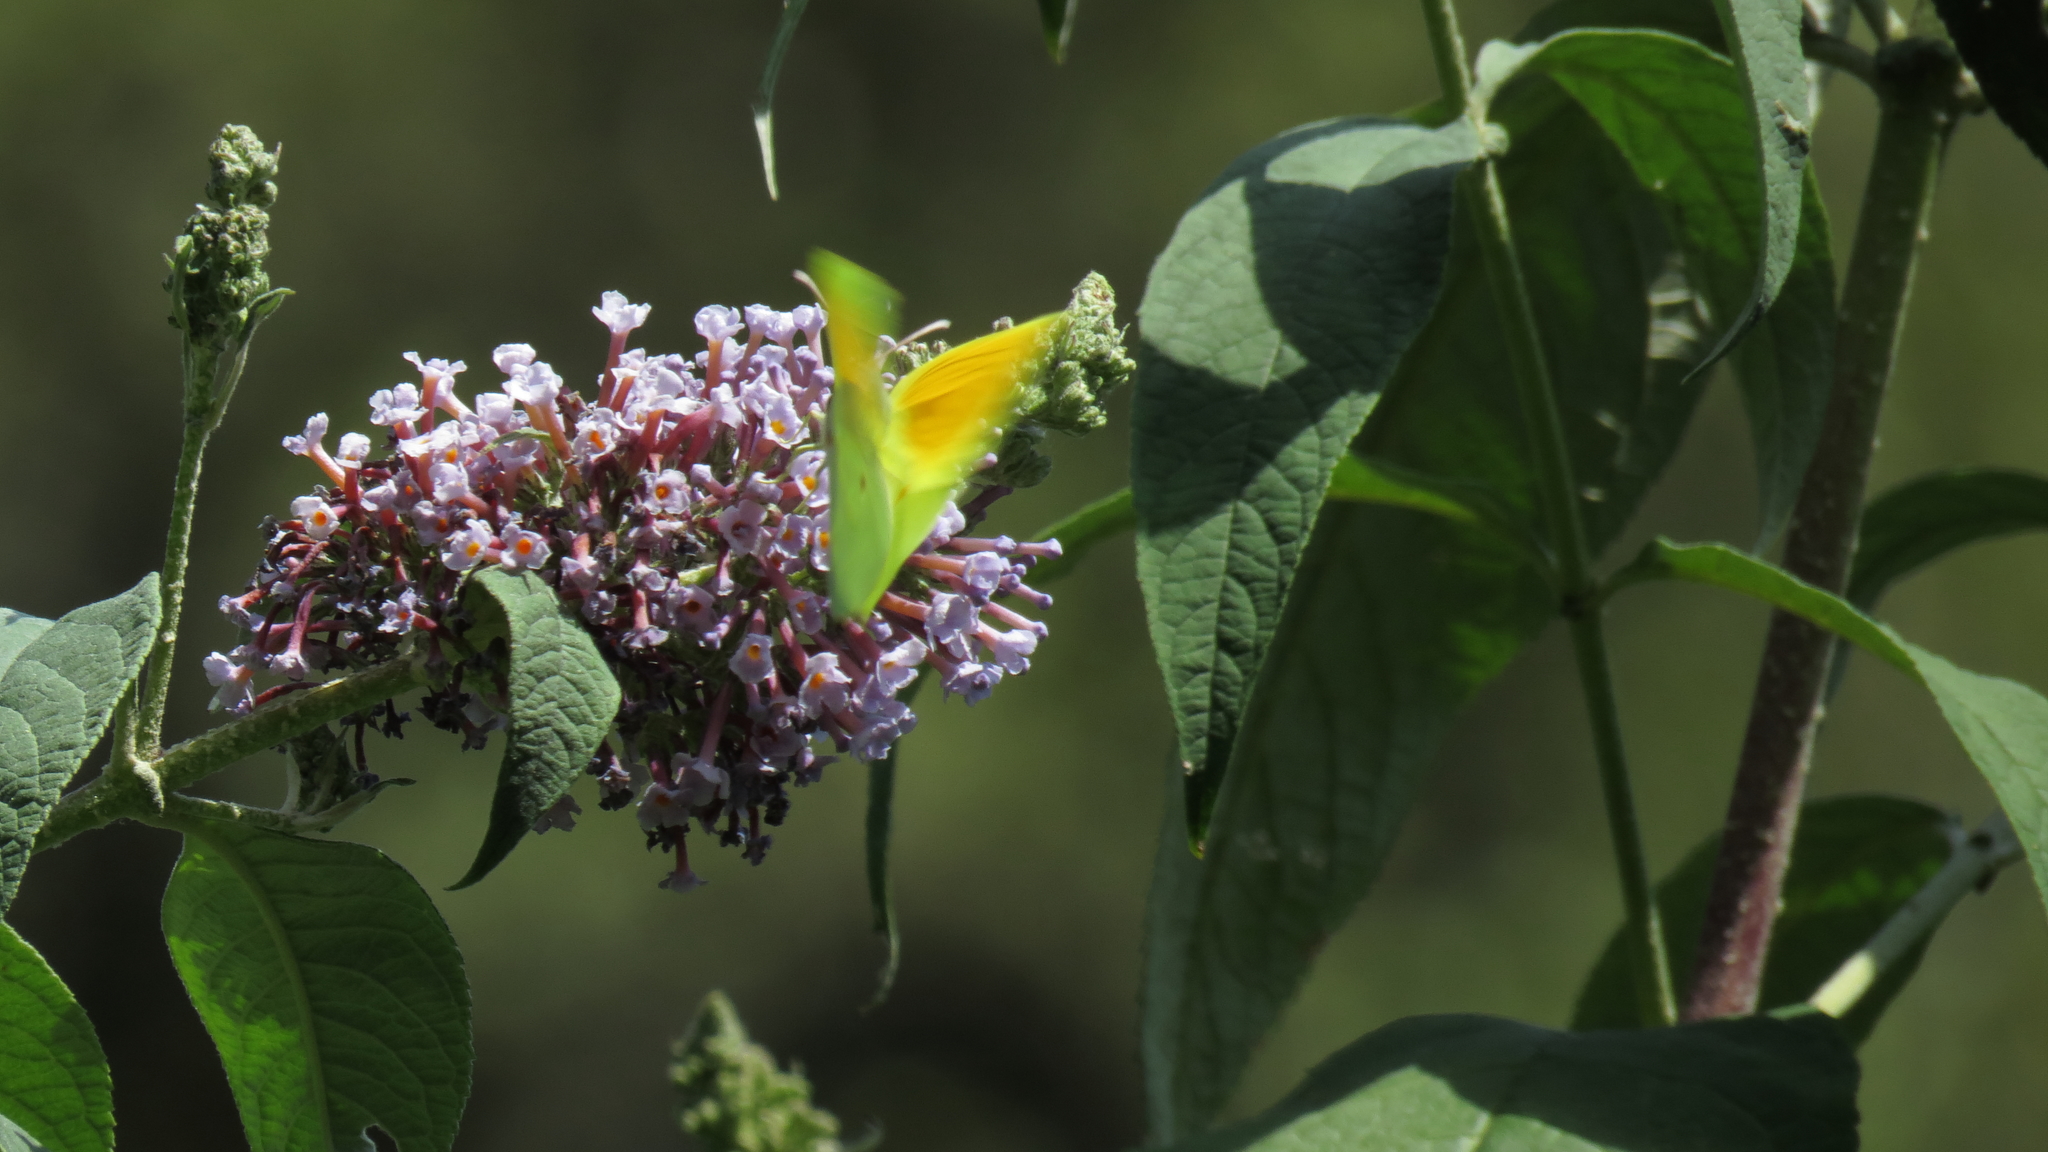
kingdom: Animalia
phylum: Arthropoda
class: Insecta
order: Lepidoptera
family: Pieridae
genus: Gonepteryx
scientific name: Gonepteryx cleopatra
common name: Cleopatra
